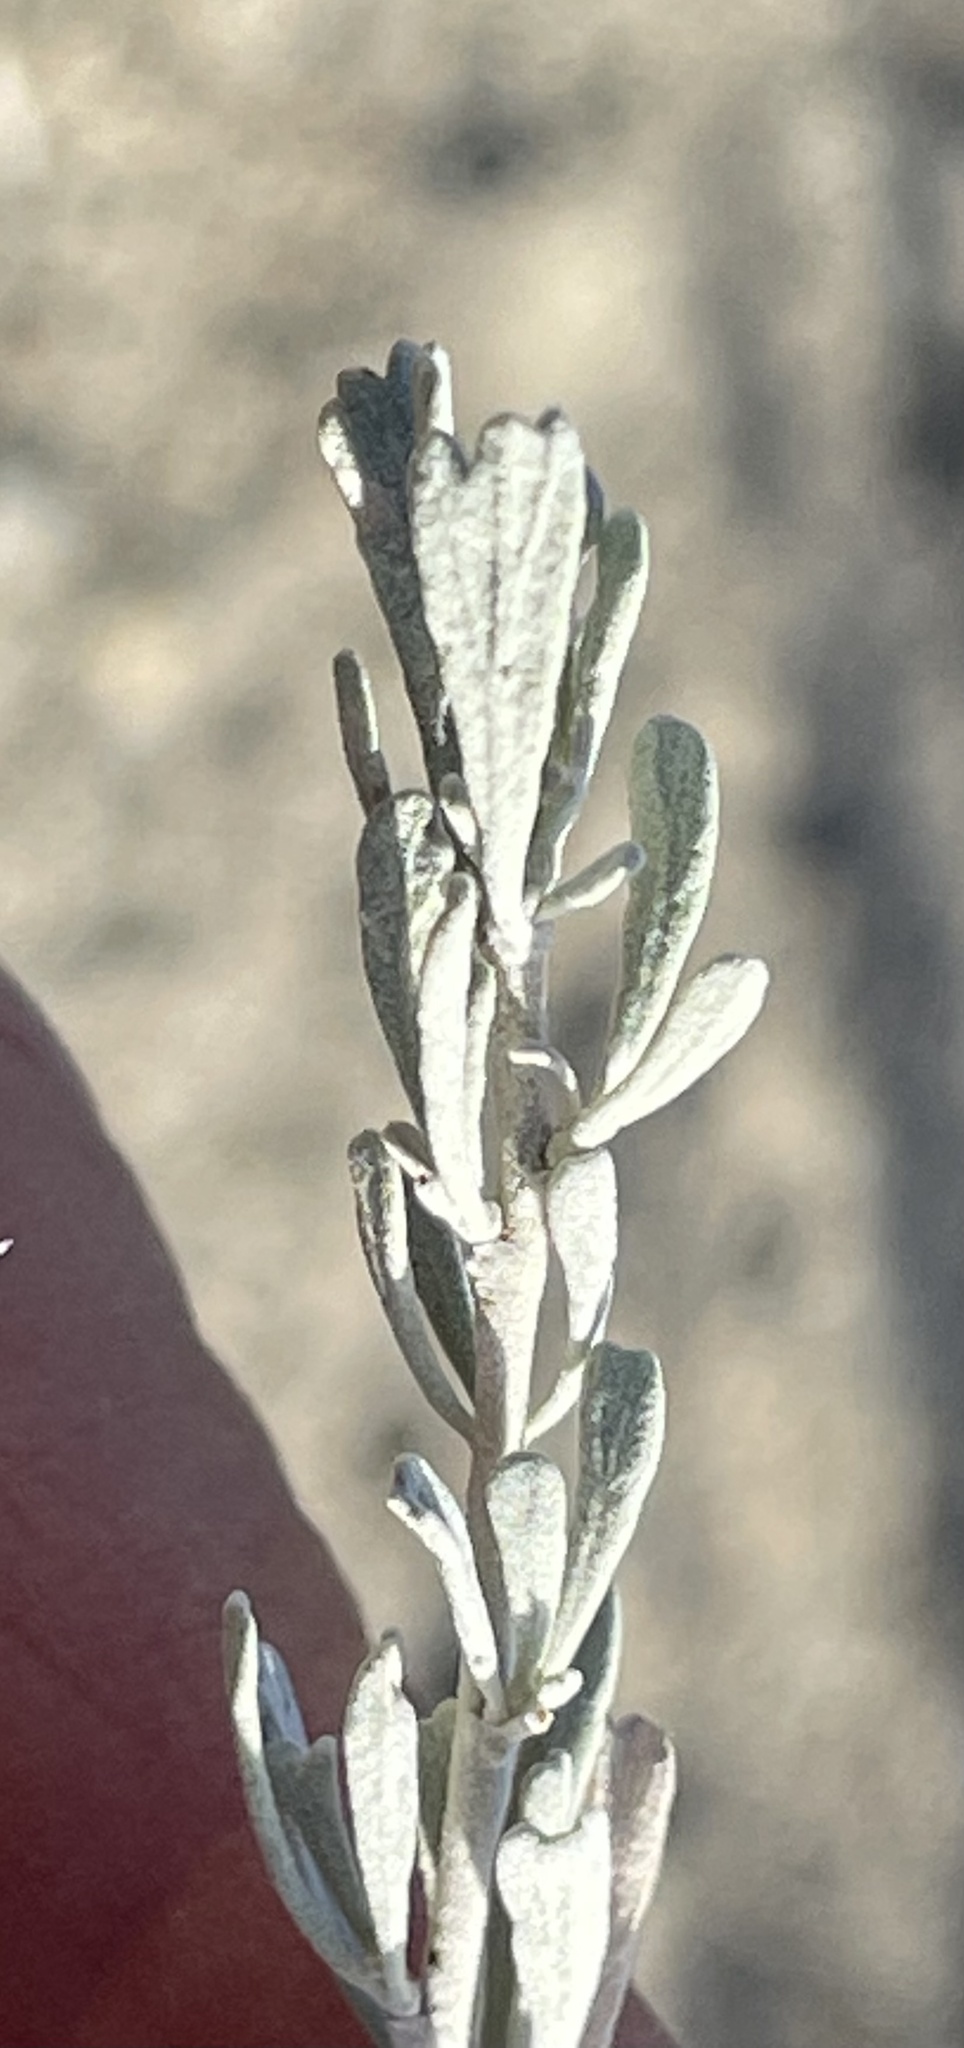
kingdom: Plantae
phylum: Tracheophyta
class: Magnoliopsida
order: Asterales
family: Asteraceae
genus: Artemisia
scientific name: Artemisia tridentata
